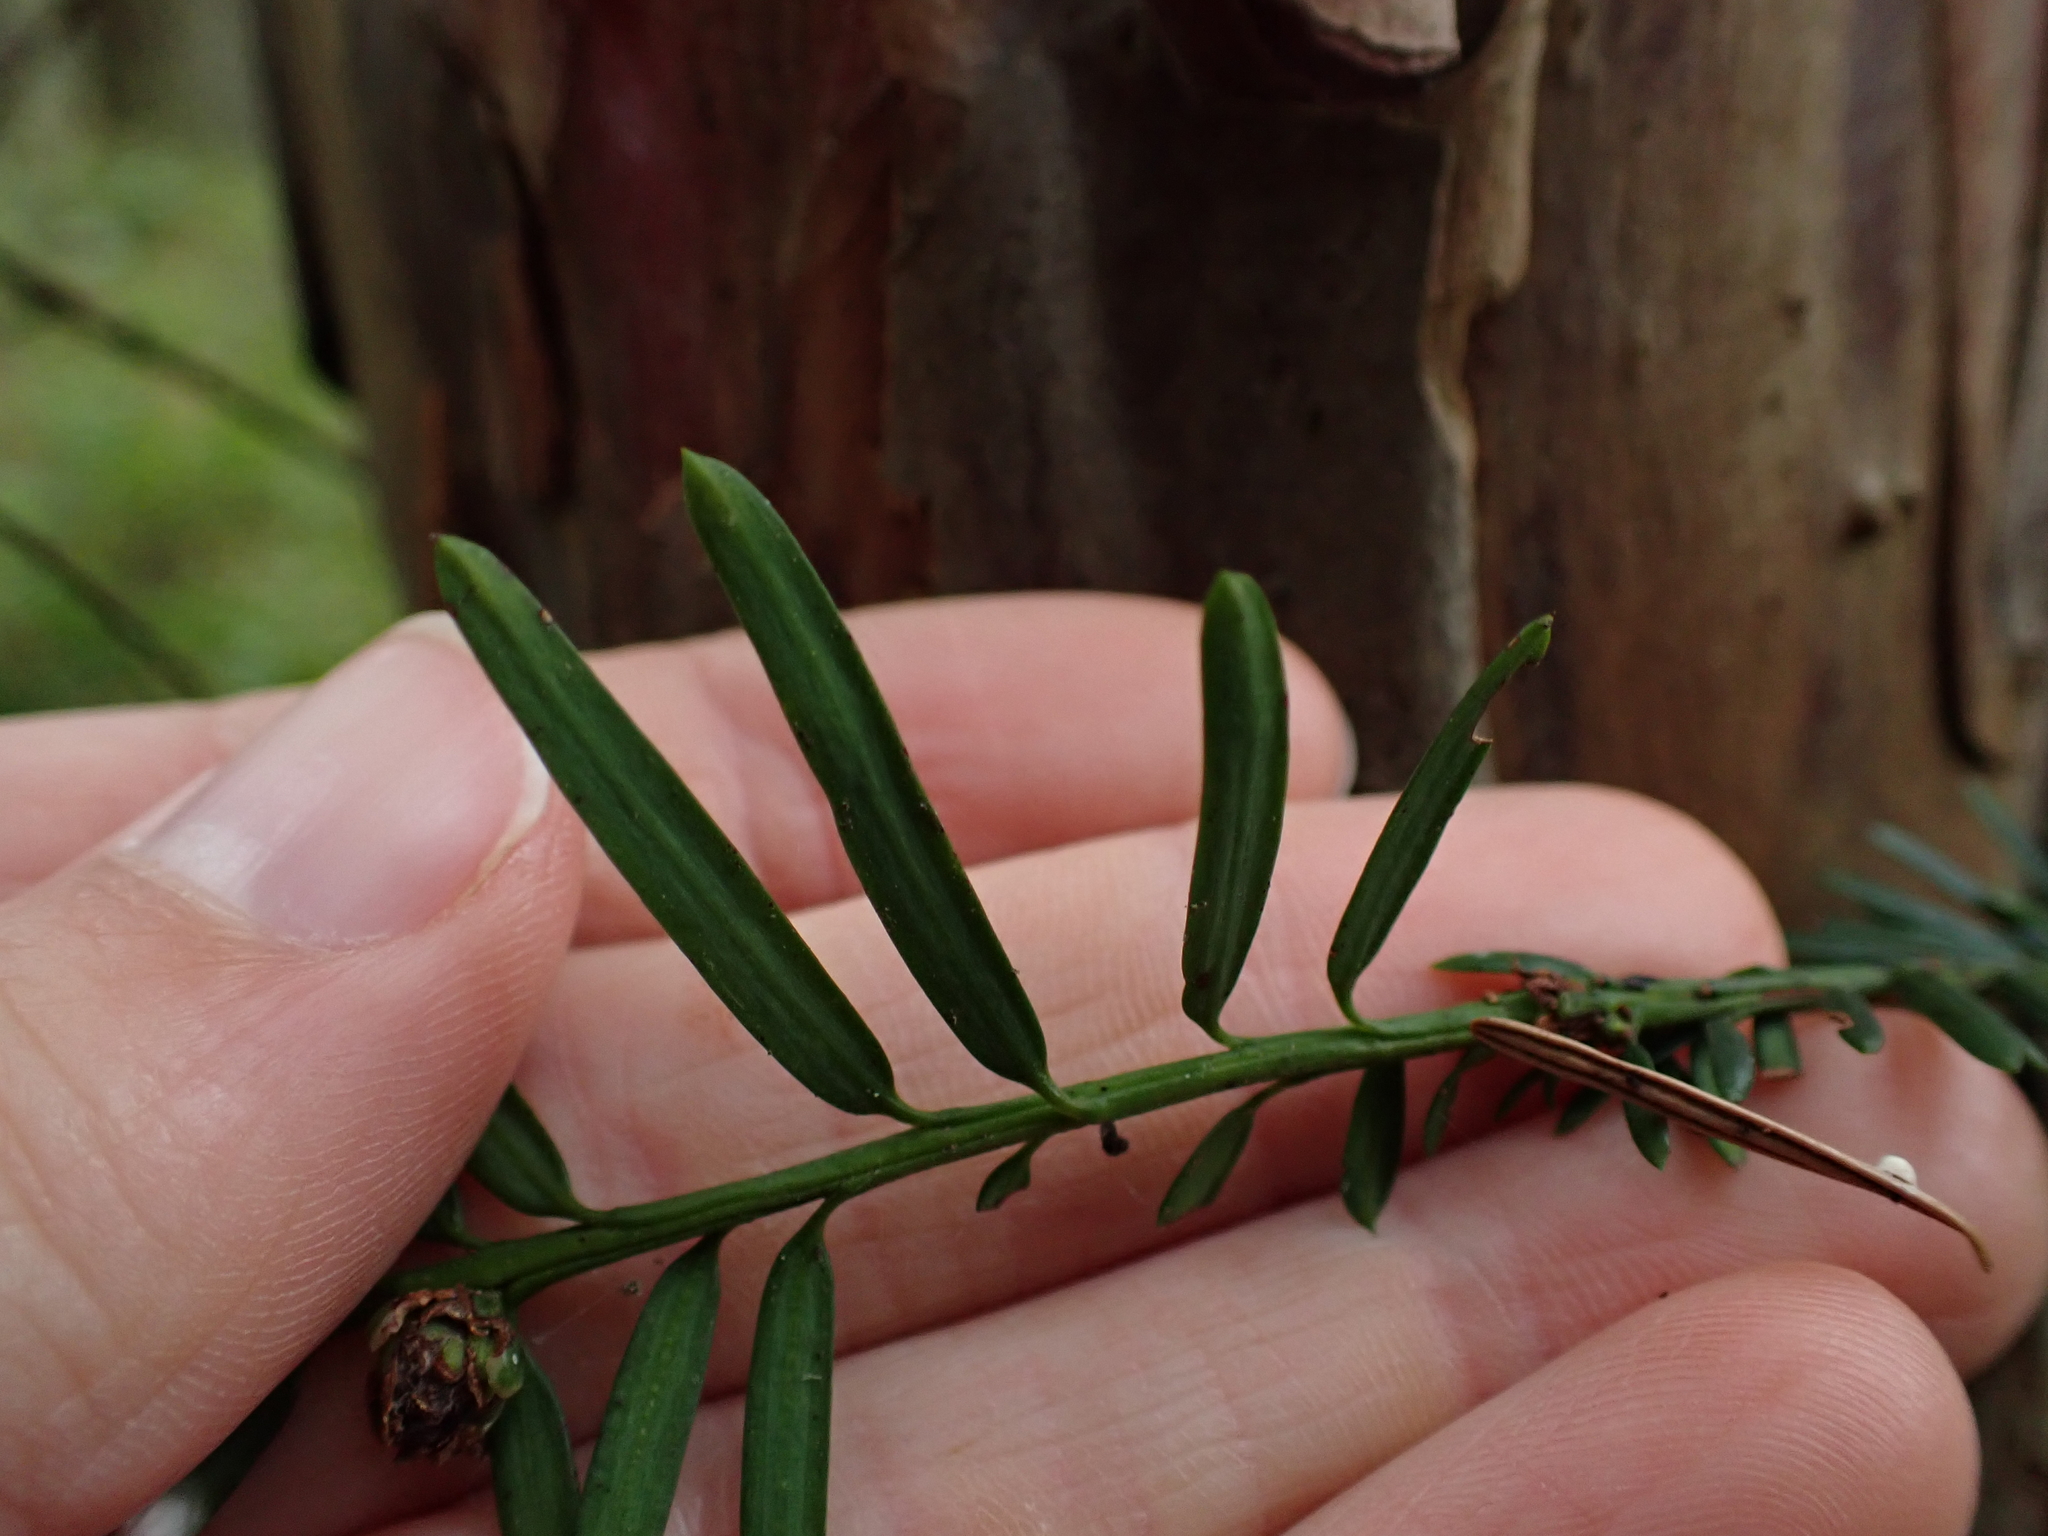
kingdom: Plantae
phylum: Tracheophyta
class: Pinopsida
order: Pinales
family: Taxaceae
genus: Taxus
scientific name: Taxus brevifolia
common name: Pacific yew
